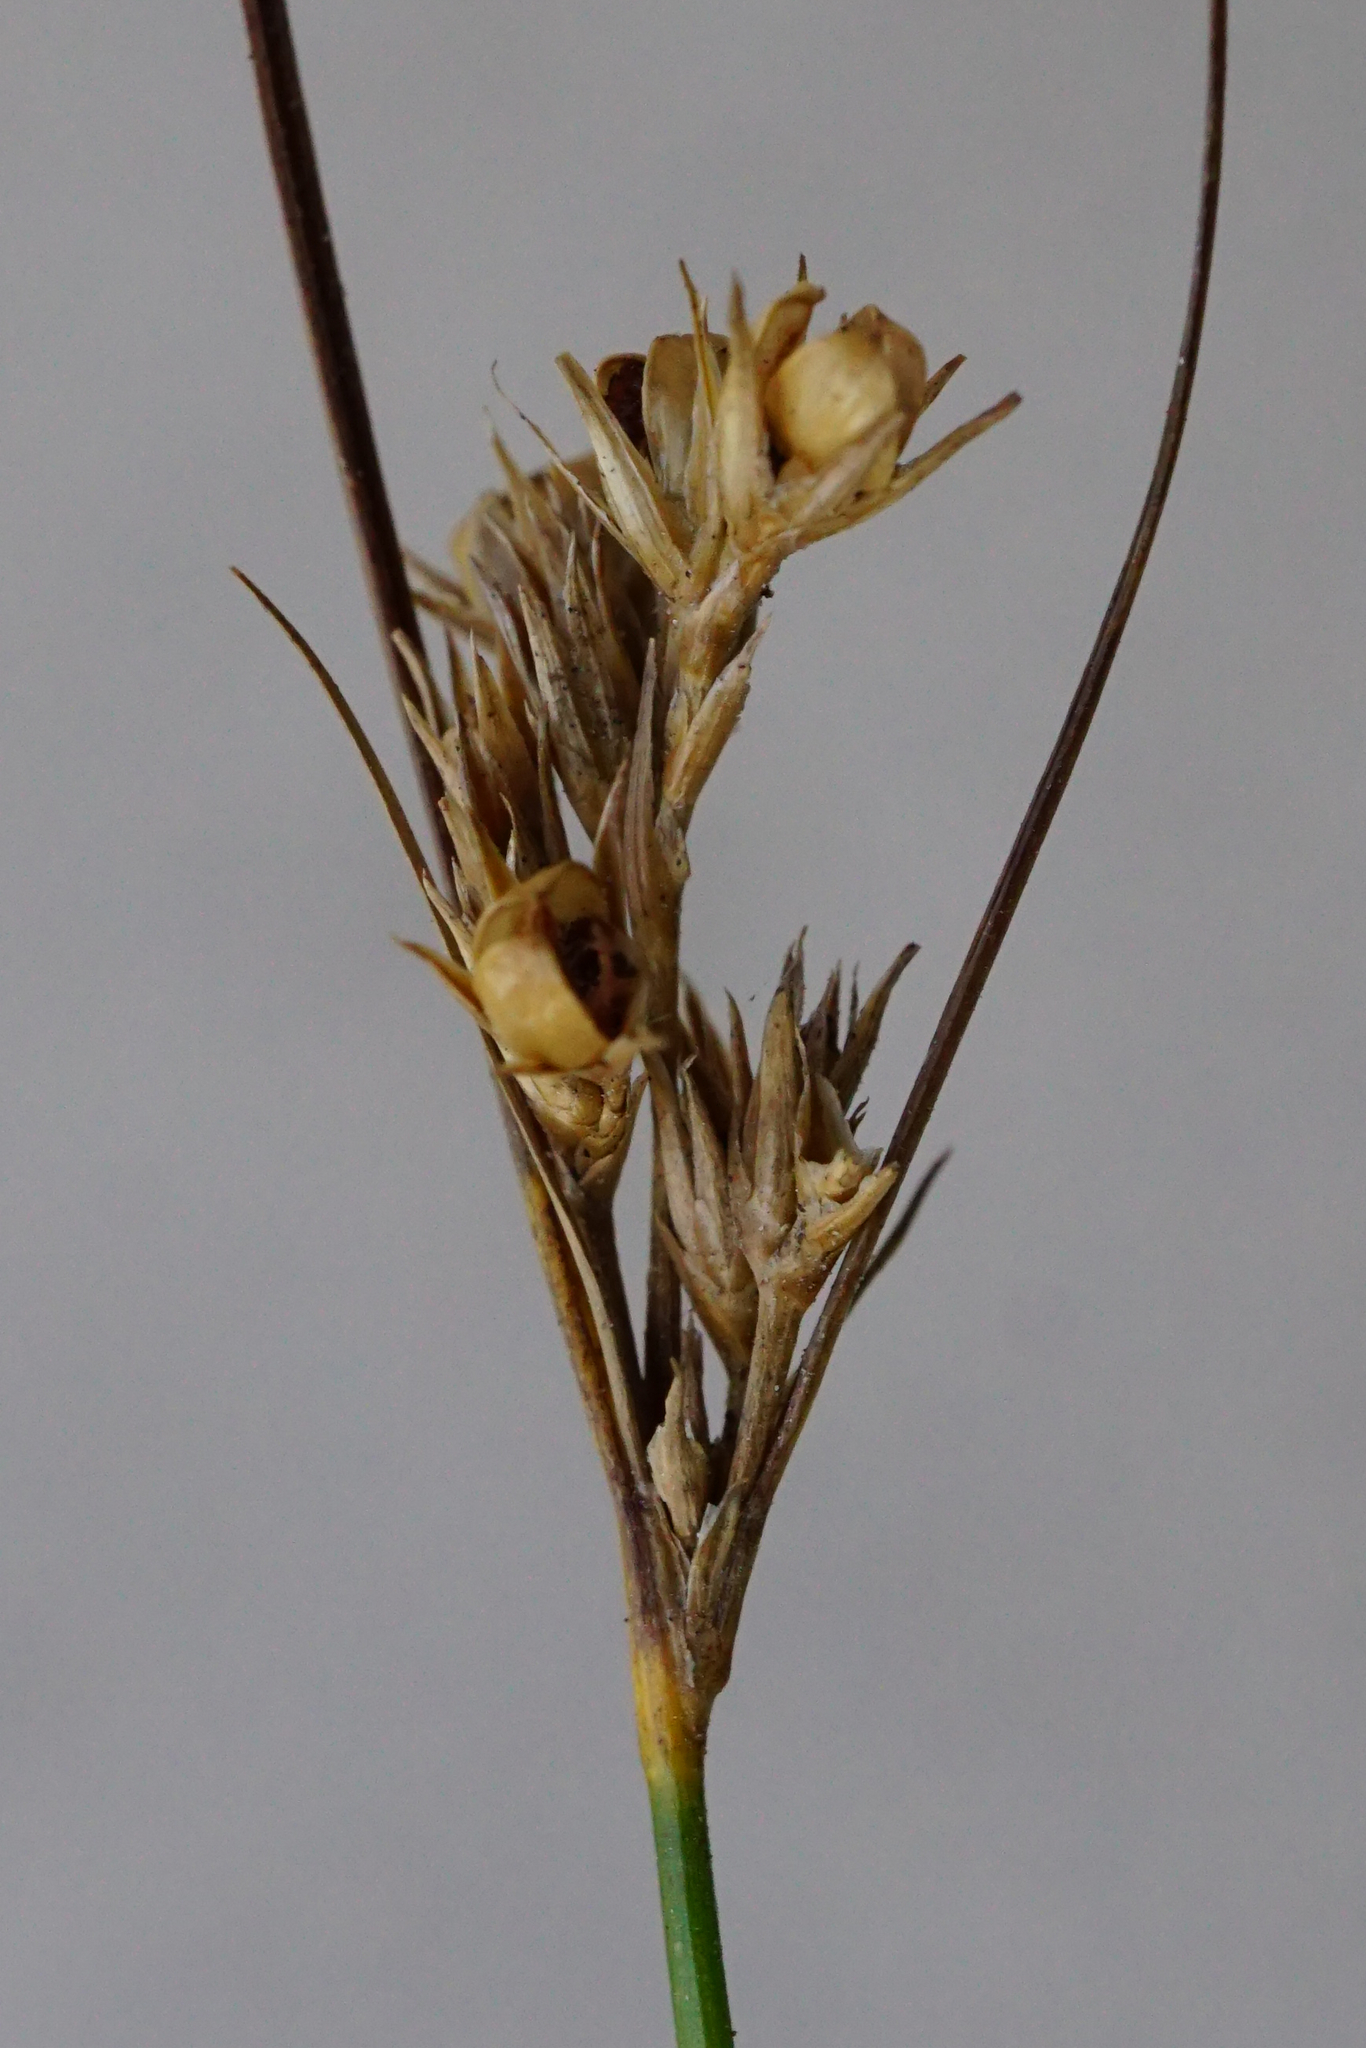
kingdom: Plantae
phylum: Tracheophyta
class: Liliopsida
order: Poales
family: Juncaceae
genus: Juncus
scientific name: Juncus tenuis
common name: Slender rush
